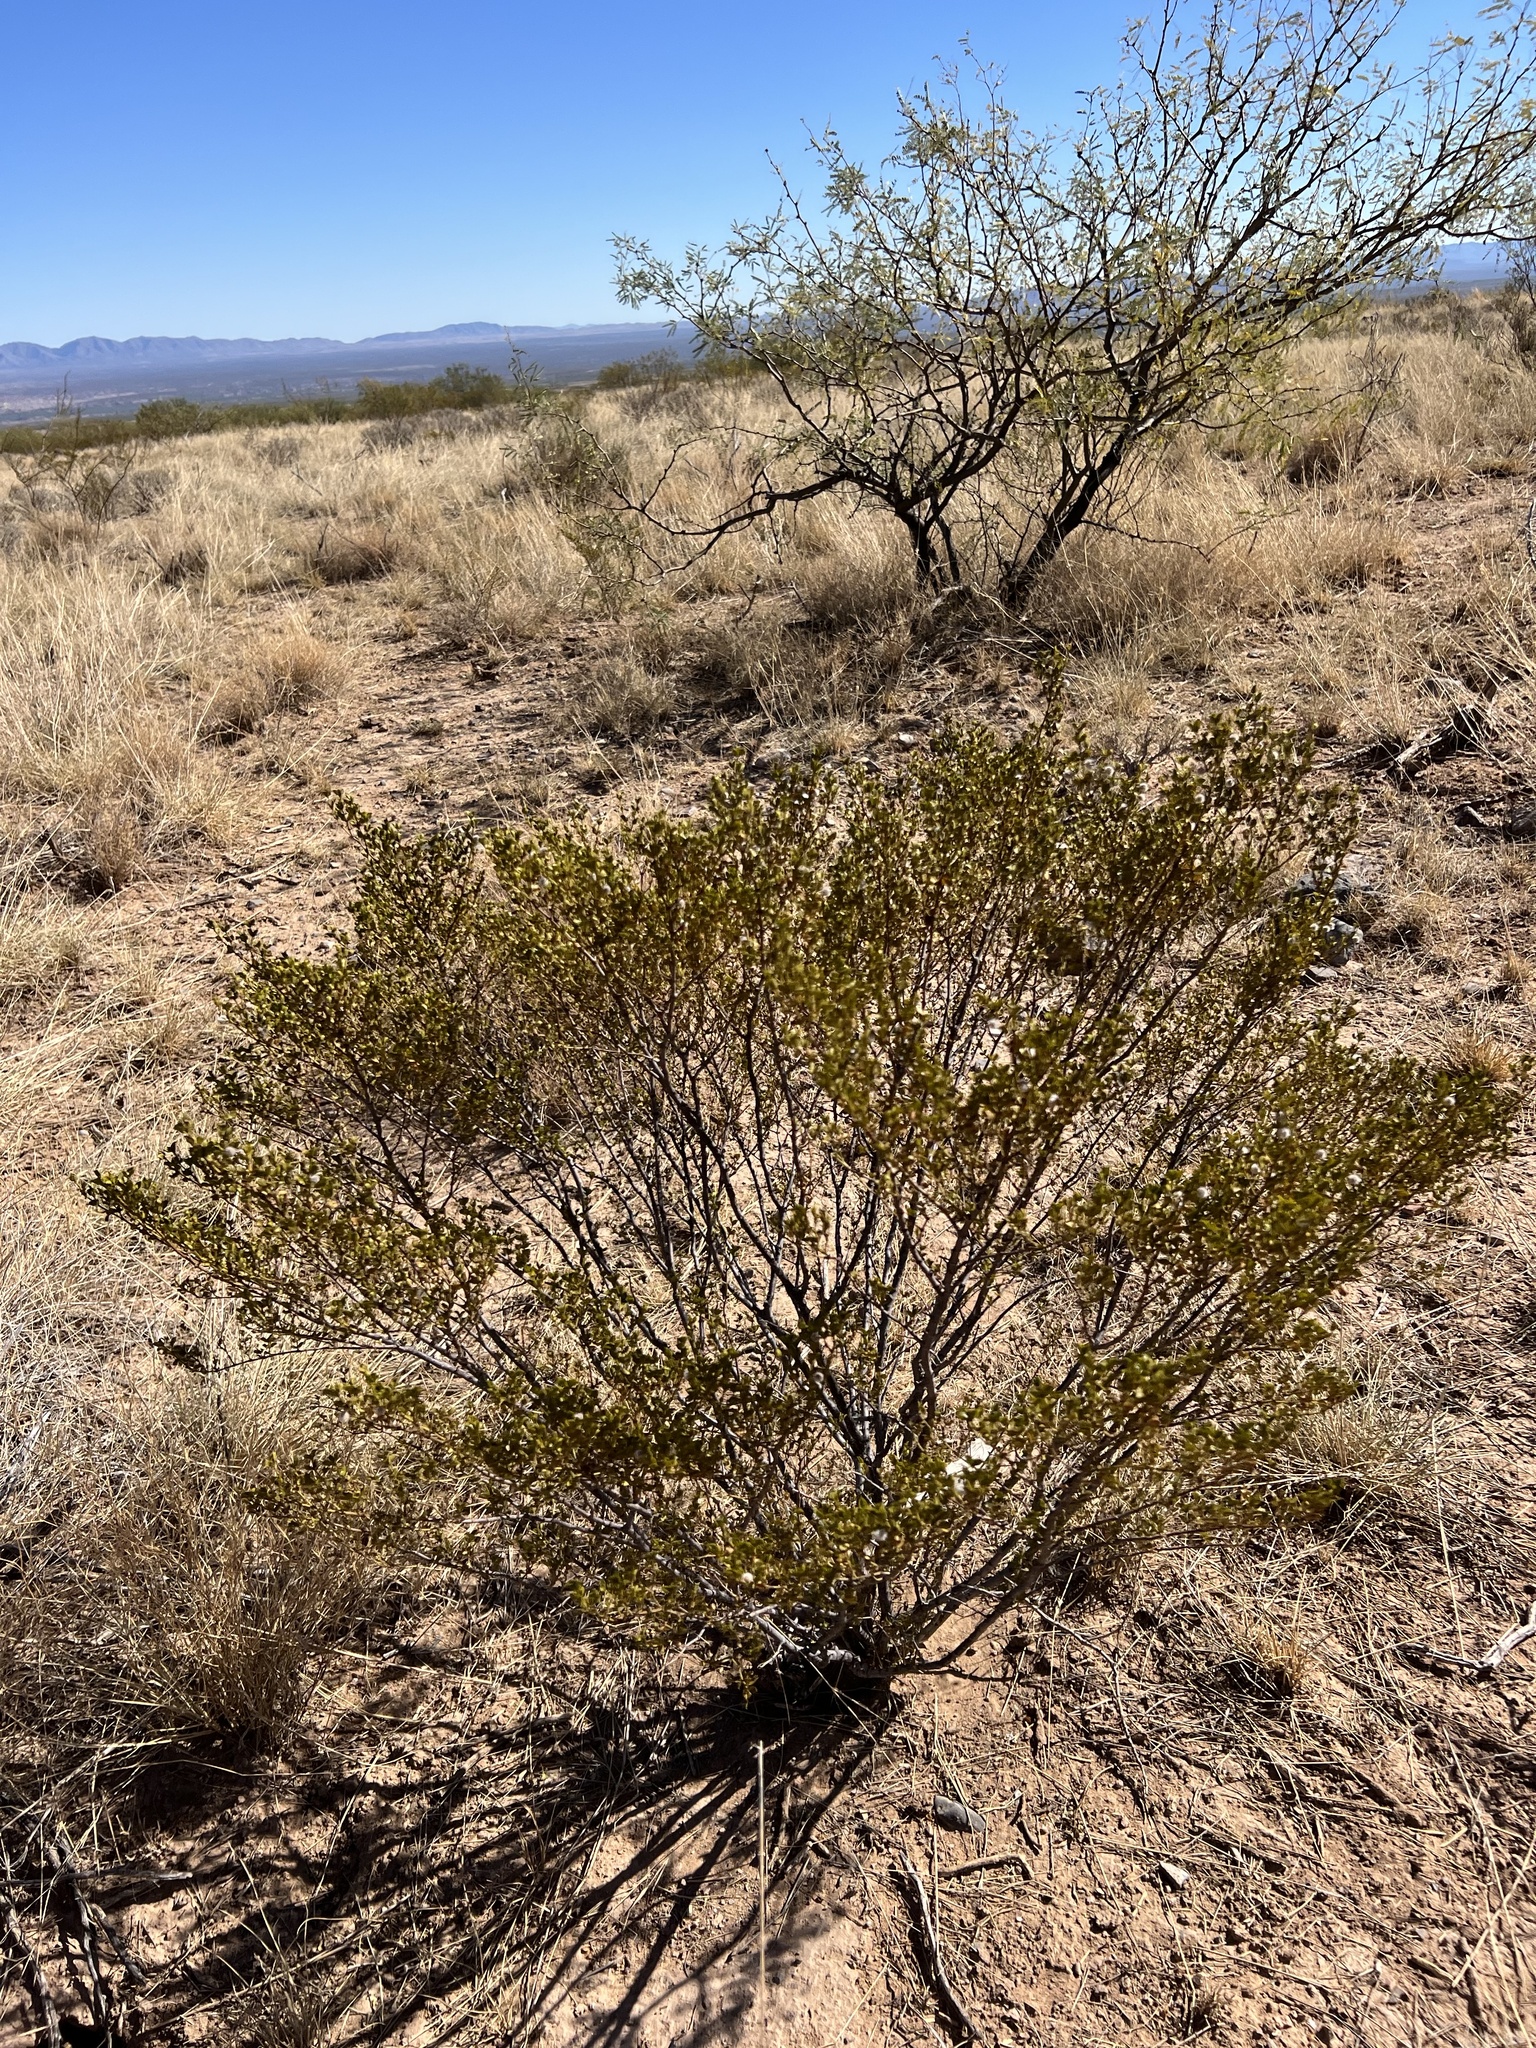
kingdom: Plantae
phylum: Tracheophyta
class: Magnoliopsida
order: Zygophyllales
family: Zygophyllaceae
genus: Larrea
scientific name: Larrea tridentata
